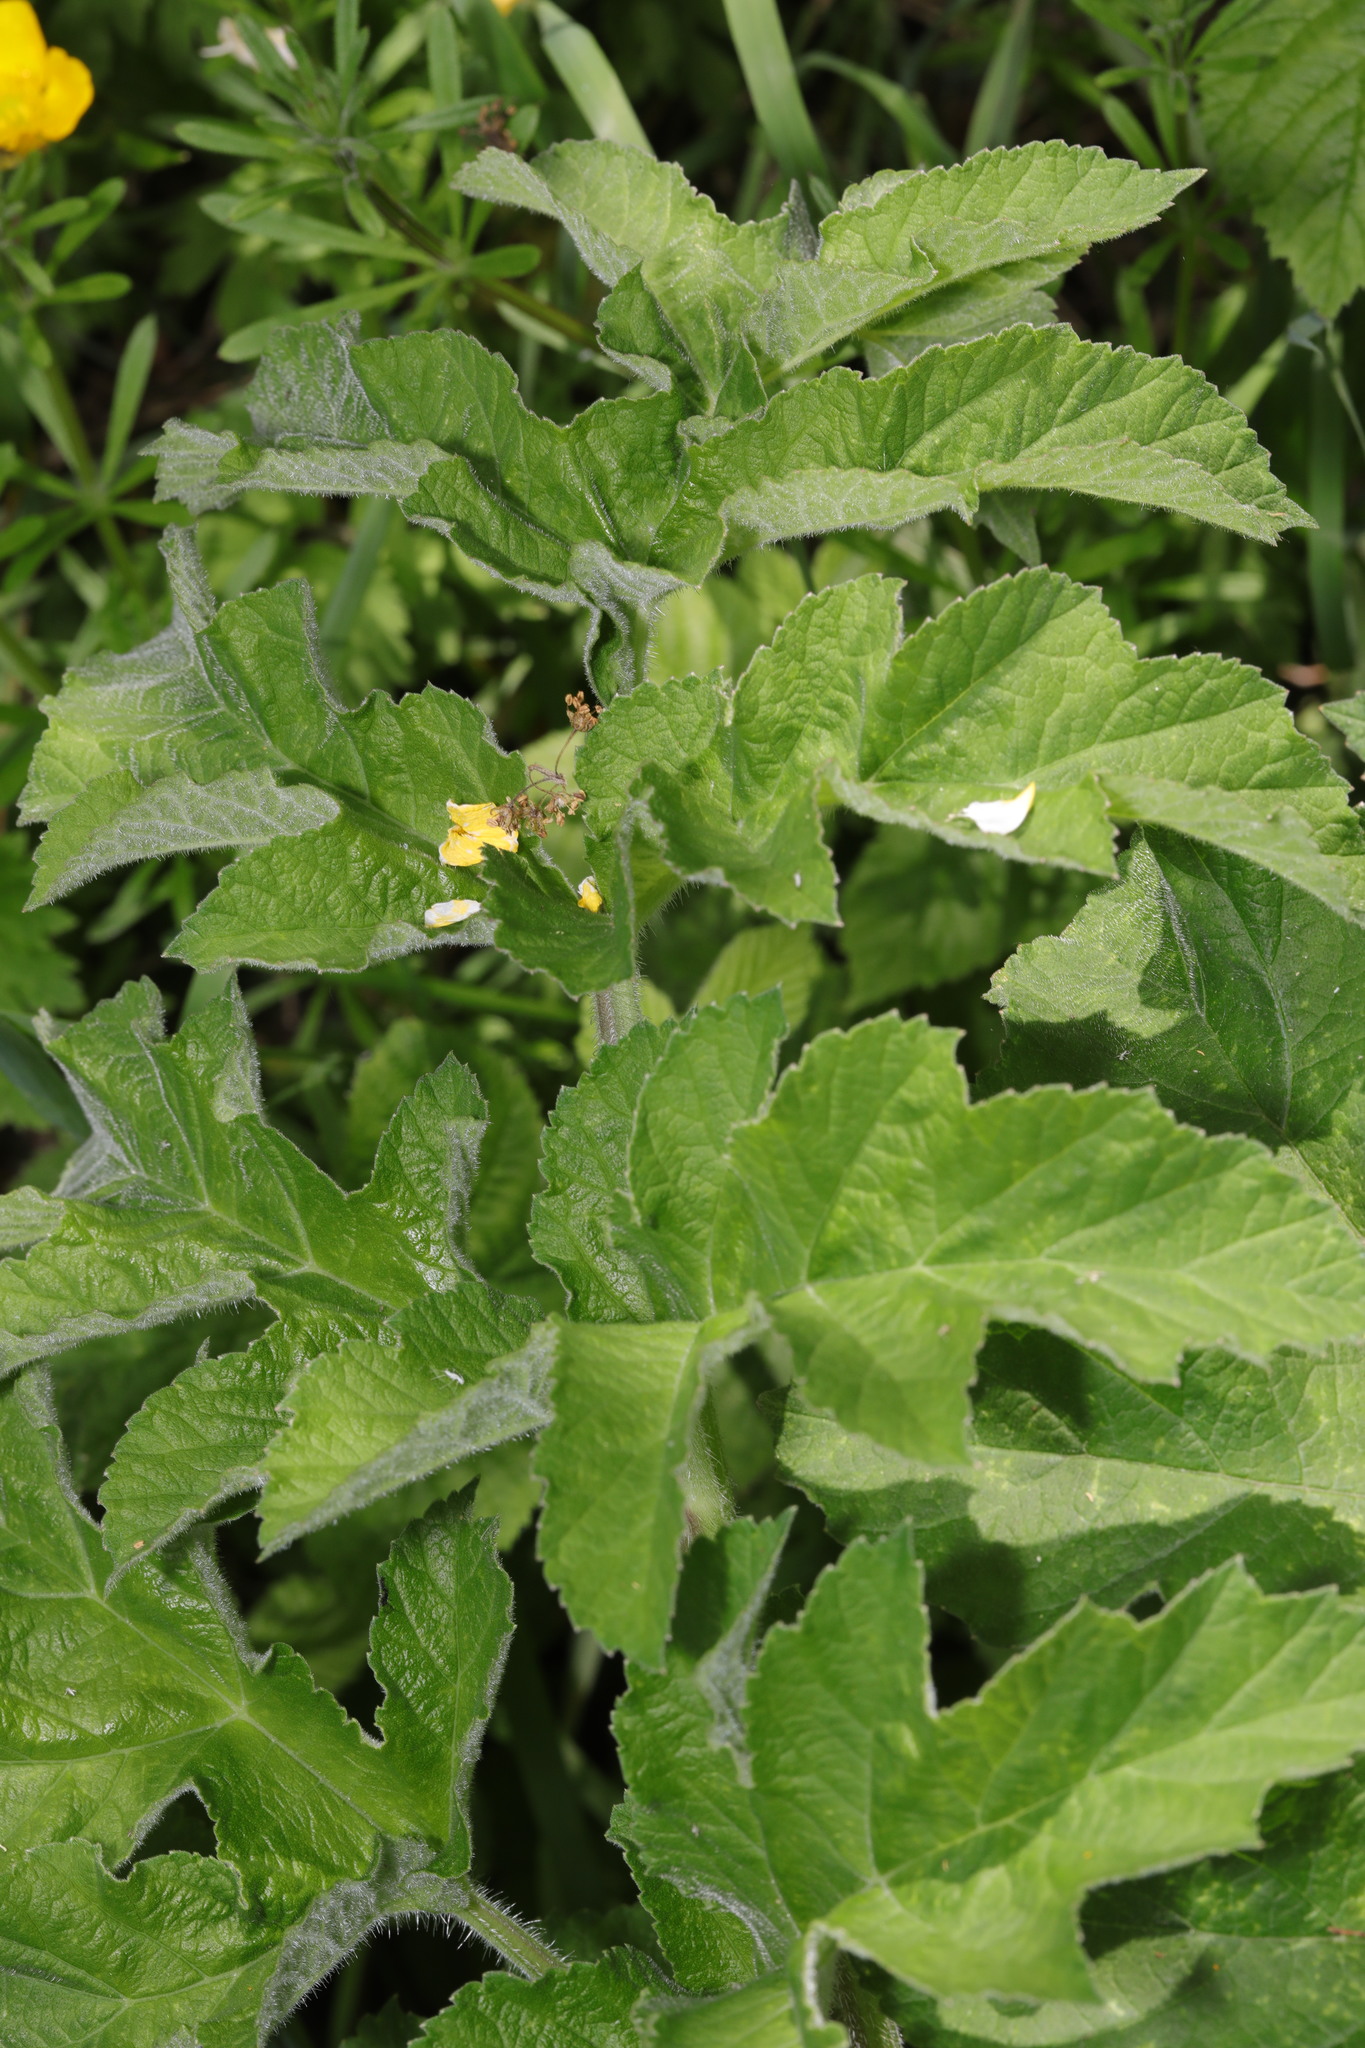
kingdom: Plantae
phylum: Tracheophyta
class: Magnoliopsida
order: Apiales
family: Apiaceae
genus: Heracleum
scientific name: Heracleum sphondylium
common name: Hogweed
